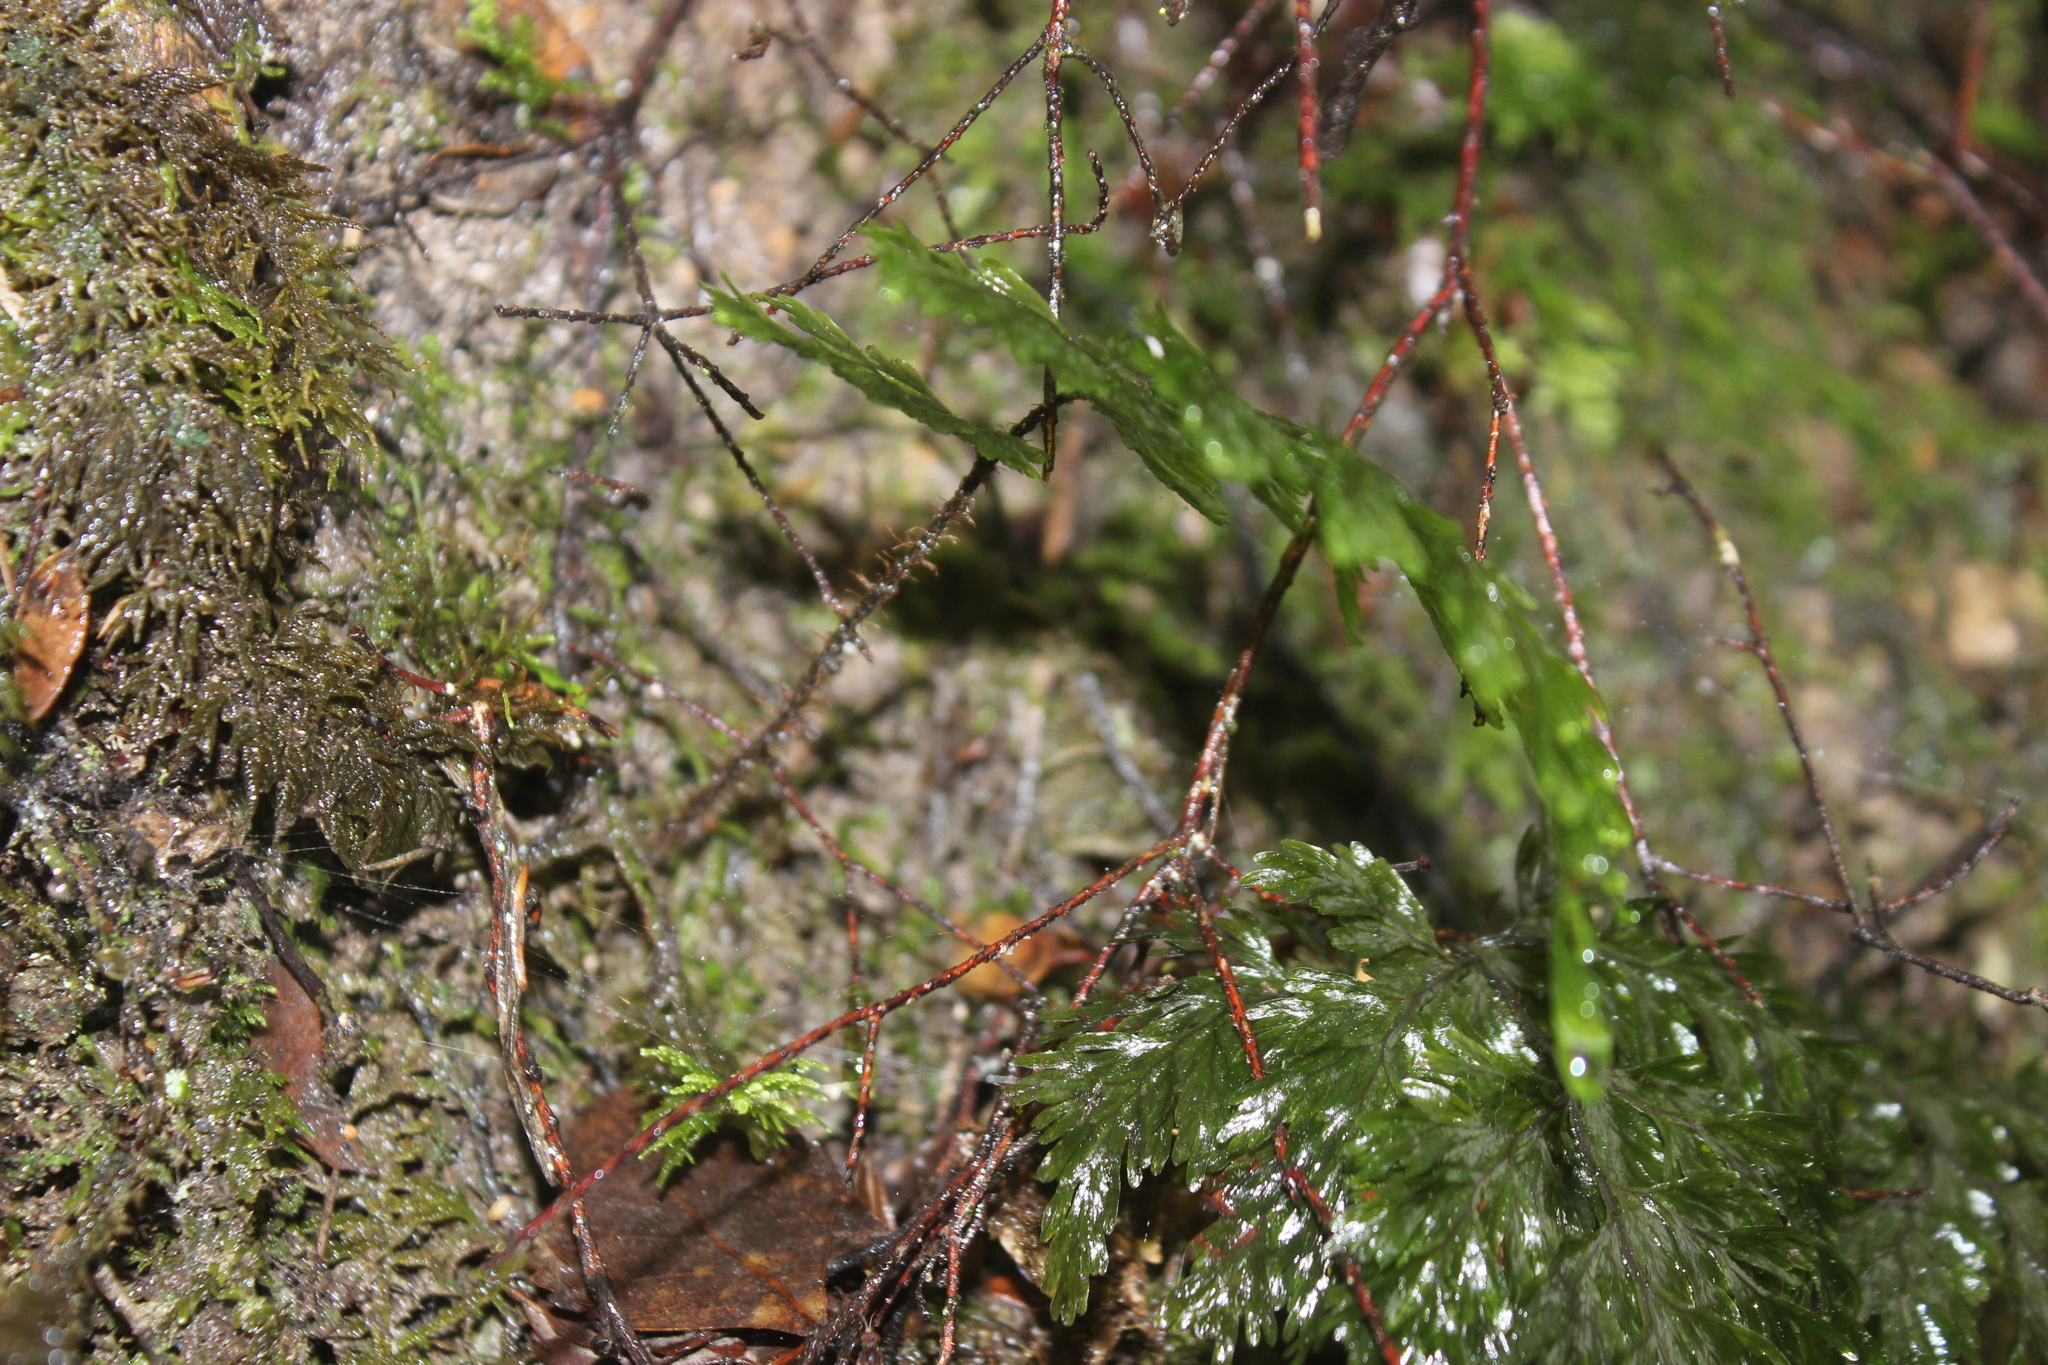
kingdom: Plantae
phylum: Tracheophyta
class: Polypodiopsida
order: Hymenophyllales
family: Hymenophyllaceae
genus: Hymenophyllum
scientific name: Hymenophyllum scabrum
